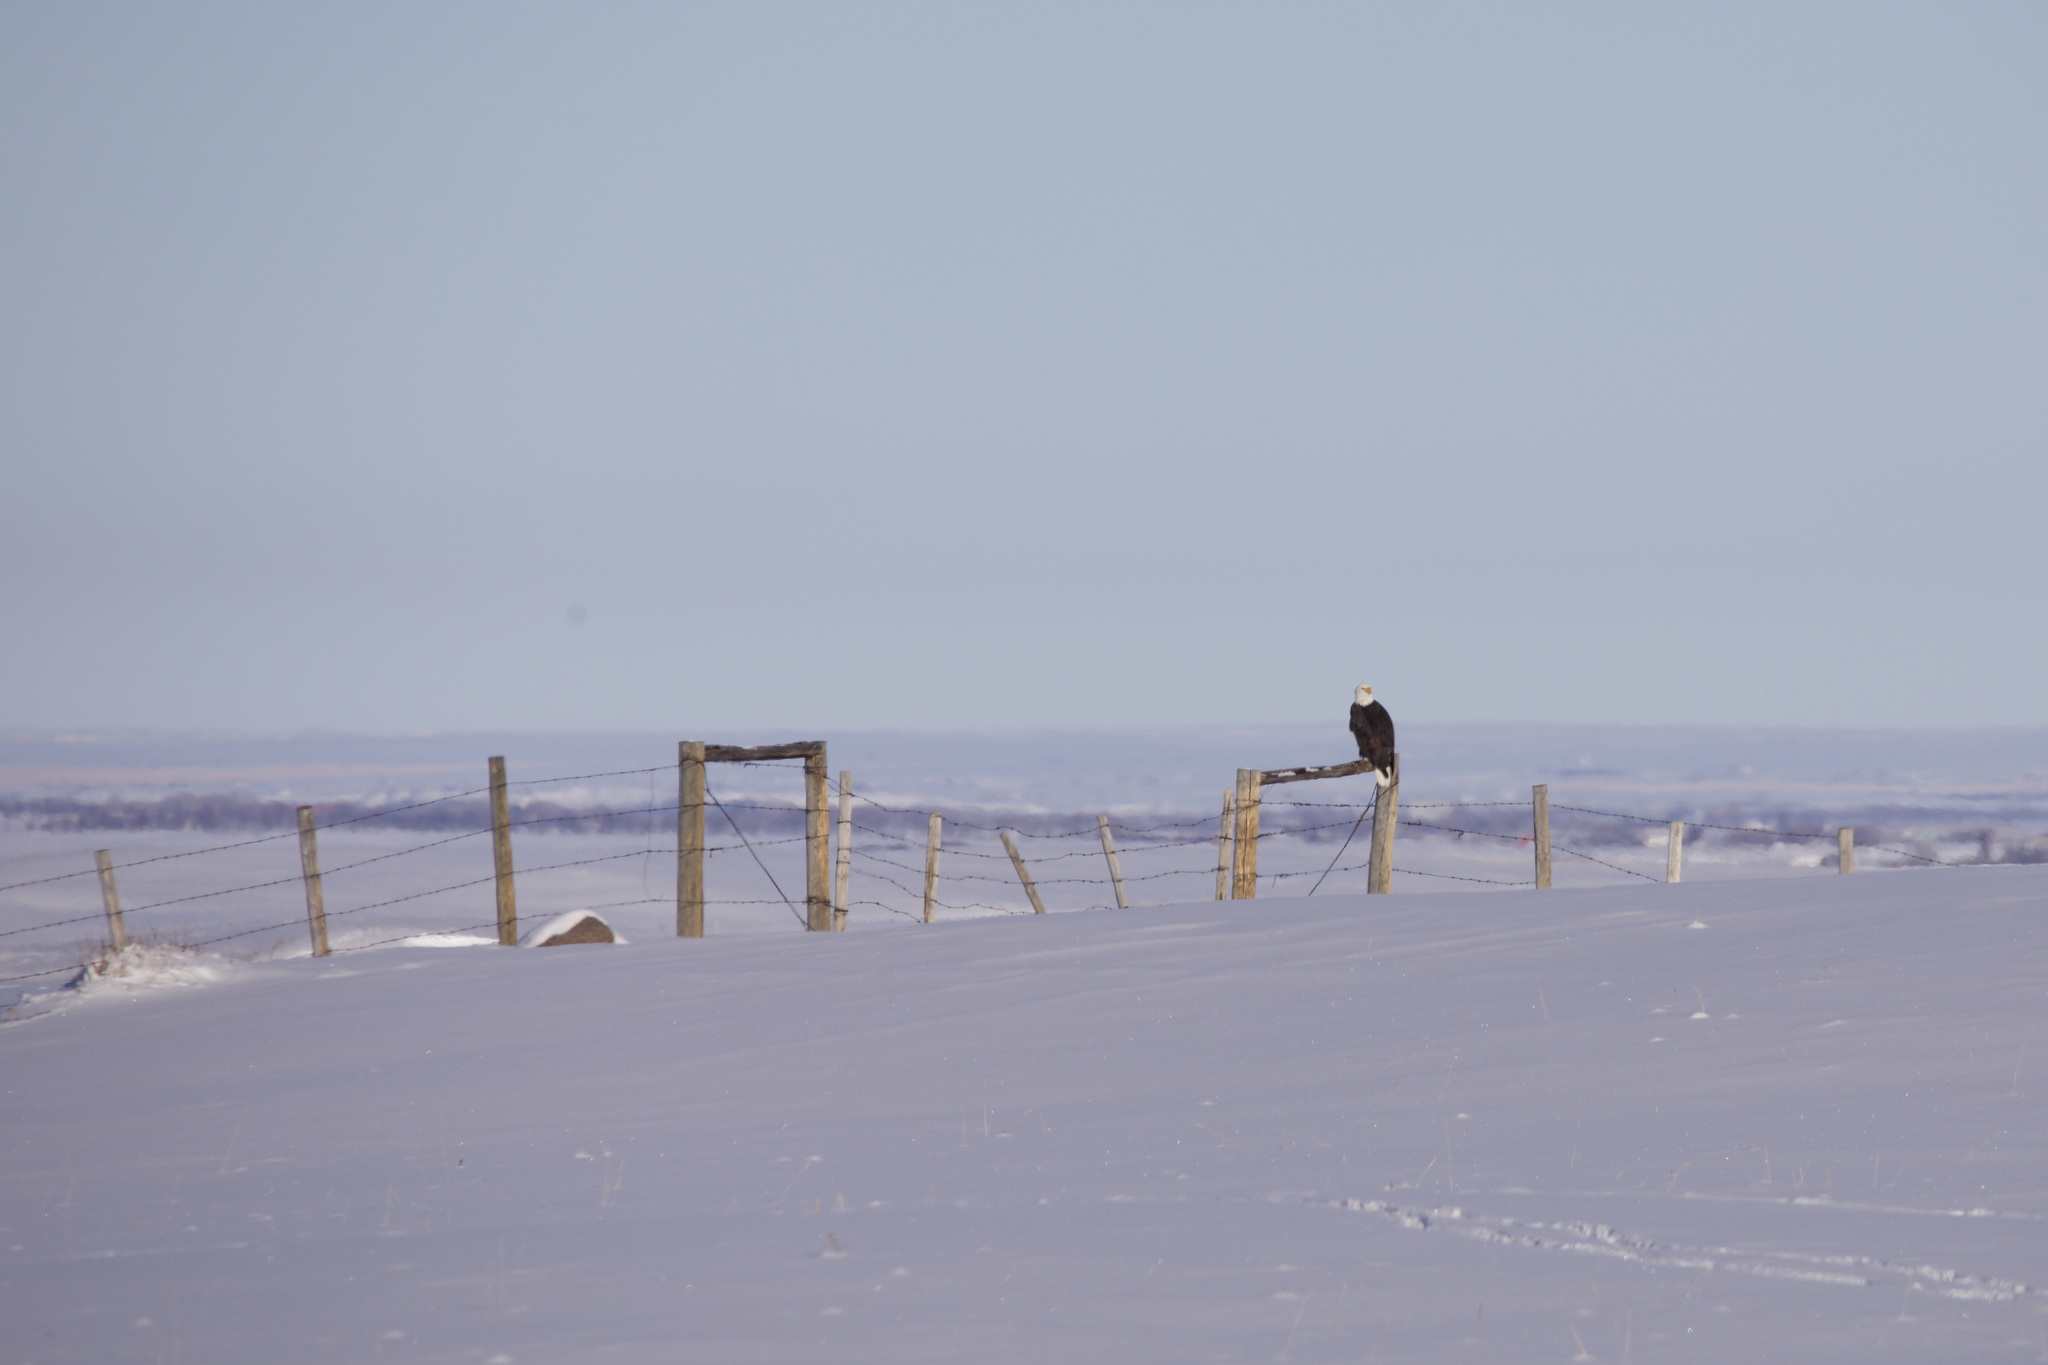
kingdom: Animalia
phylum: Chordata
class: Aves
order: Accipitriformes
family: Accipitridae
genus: Haliaeetus
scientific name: Haliaeetus leucocephalus
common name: Bald eagle
